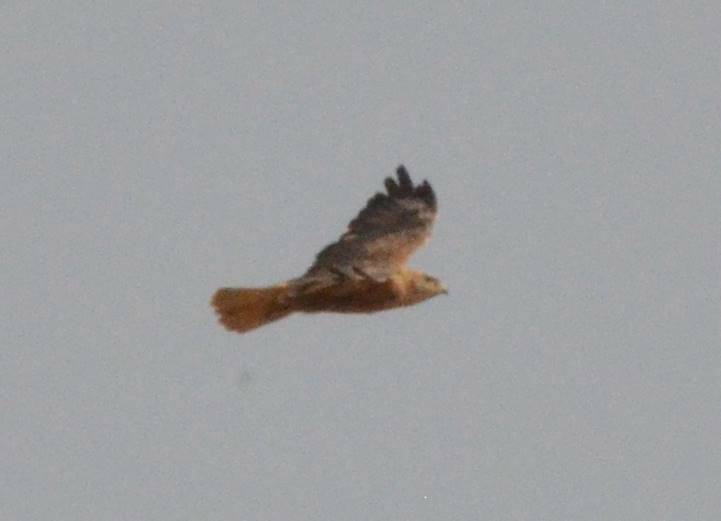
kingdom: Animalia
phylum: Chordata
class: Aves
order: Accipitriformes
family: Accipitridae
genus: Buteo
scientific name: Buteo rufinus
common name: Long-legged buzzard
